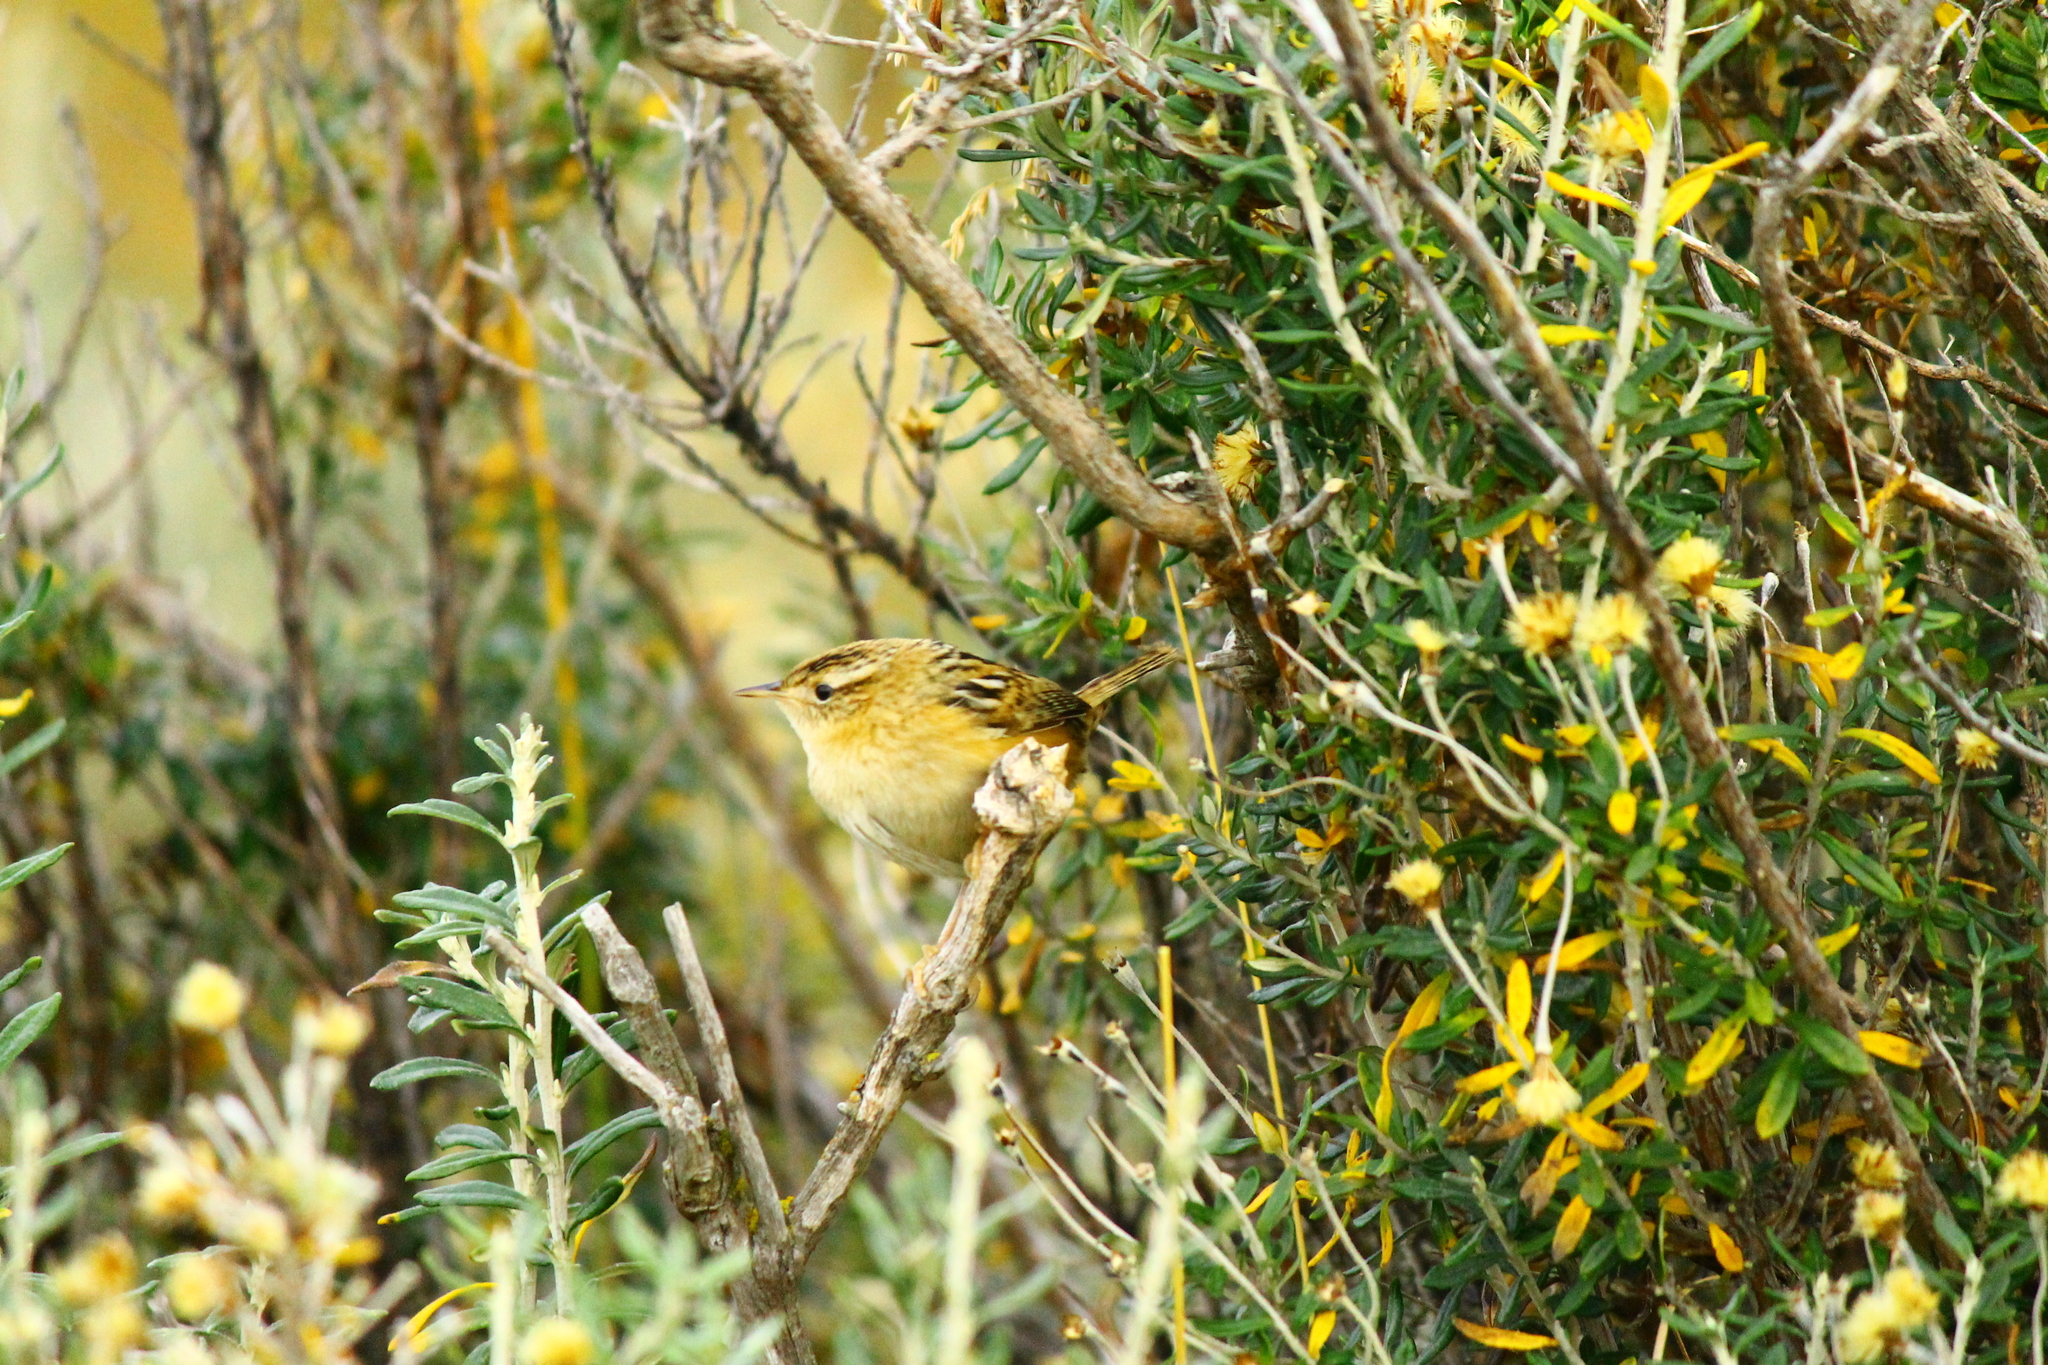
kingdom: Animalia
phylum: Chordata
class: Aves
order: Passeriformes
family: Troglodytidae
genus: Cistothorus
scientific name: Cistothorus platensis
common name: Sedge wren
